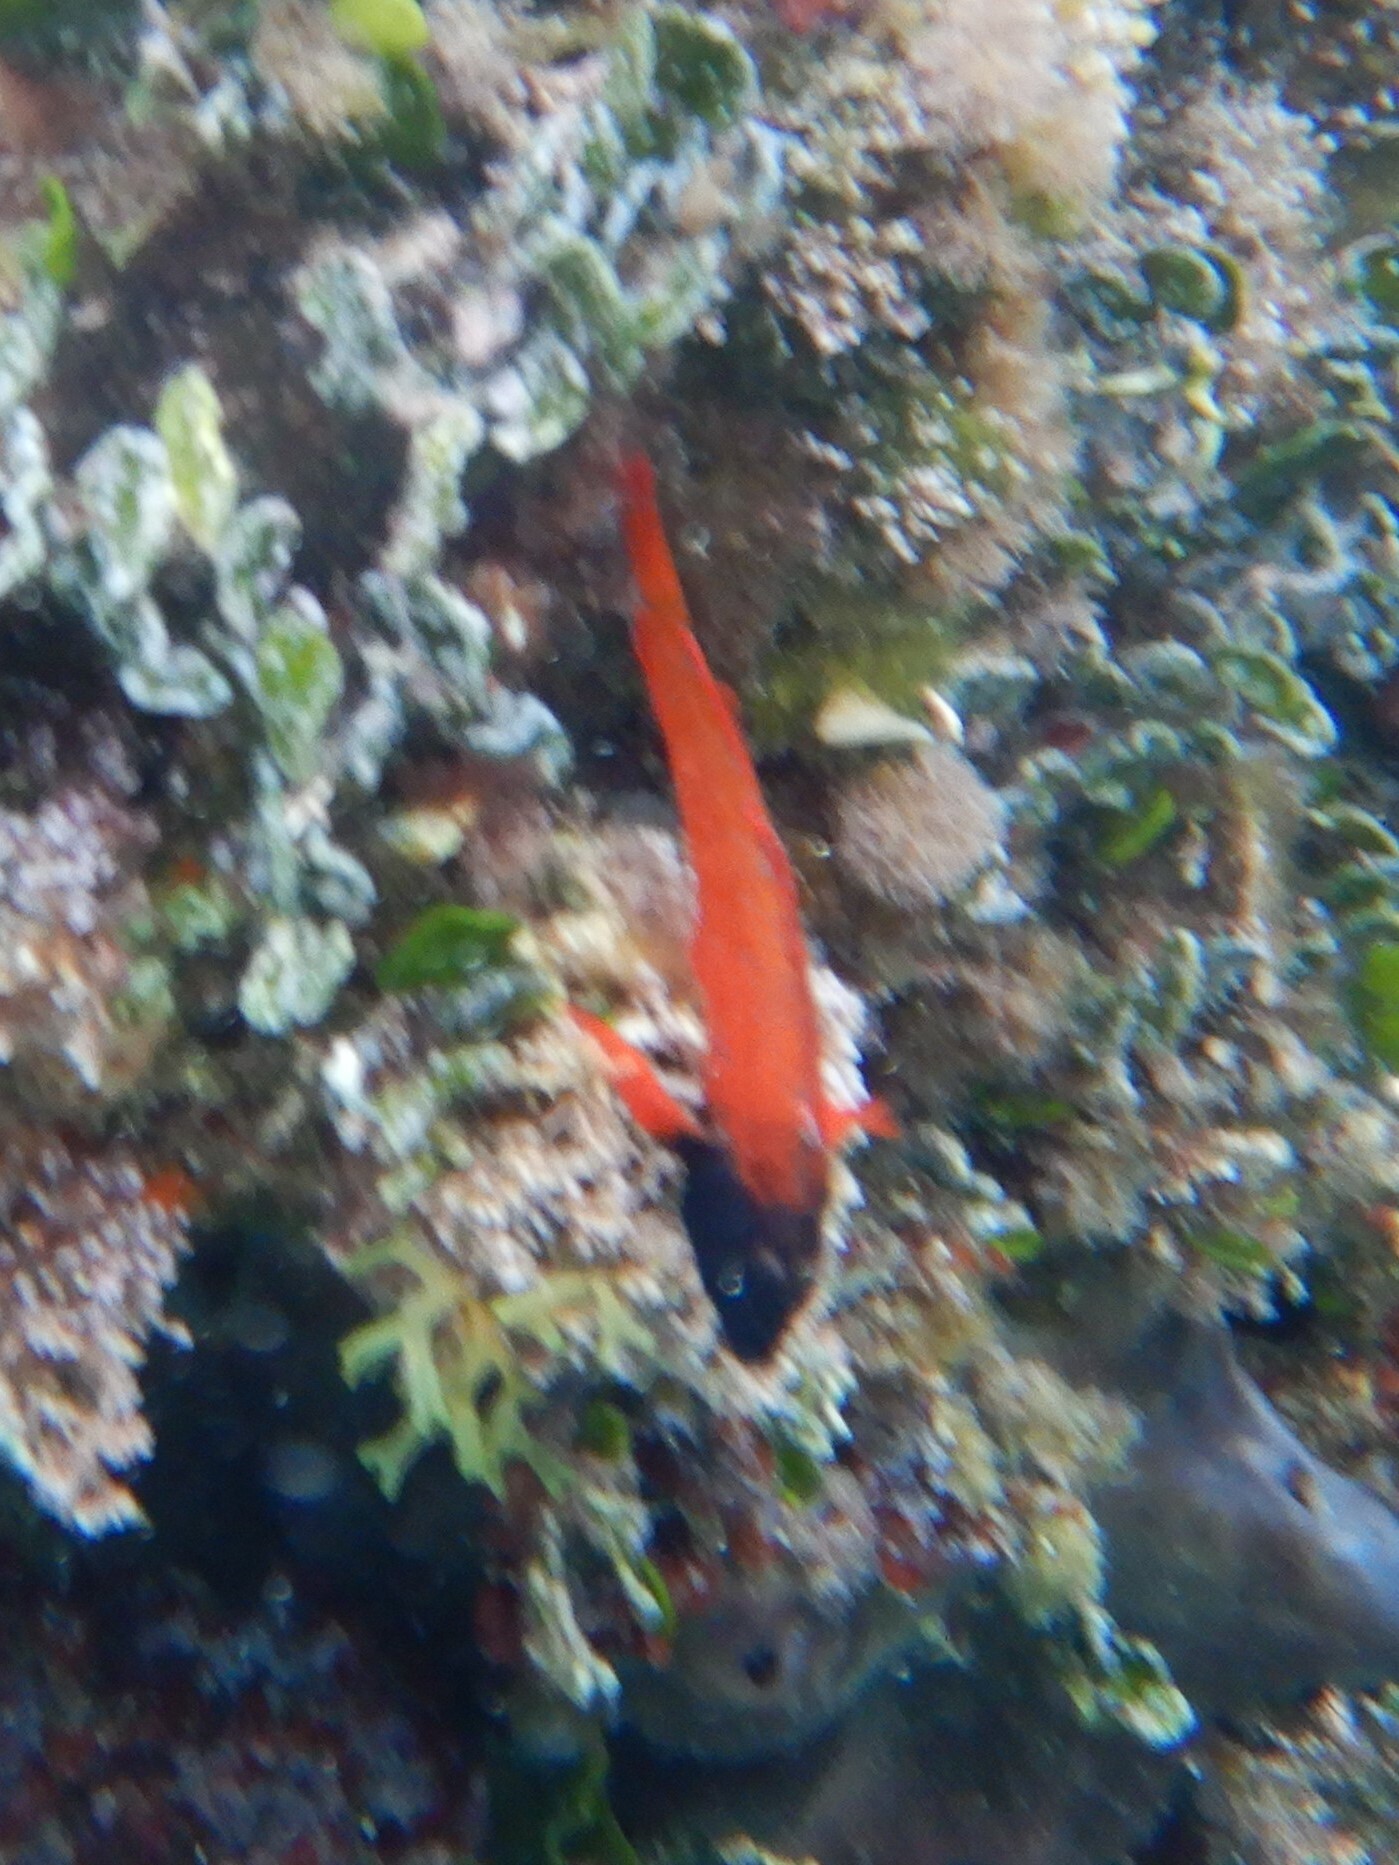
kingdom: Animalia
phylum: Chordata
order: Perciformes
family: Tripterygiidae
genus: Tripterygion
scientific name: Tripterygion tripteronotum
